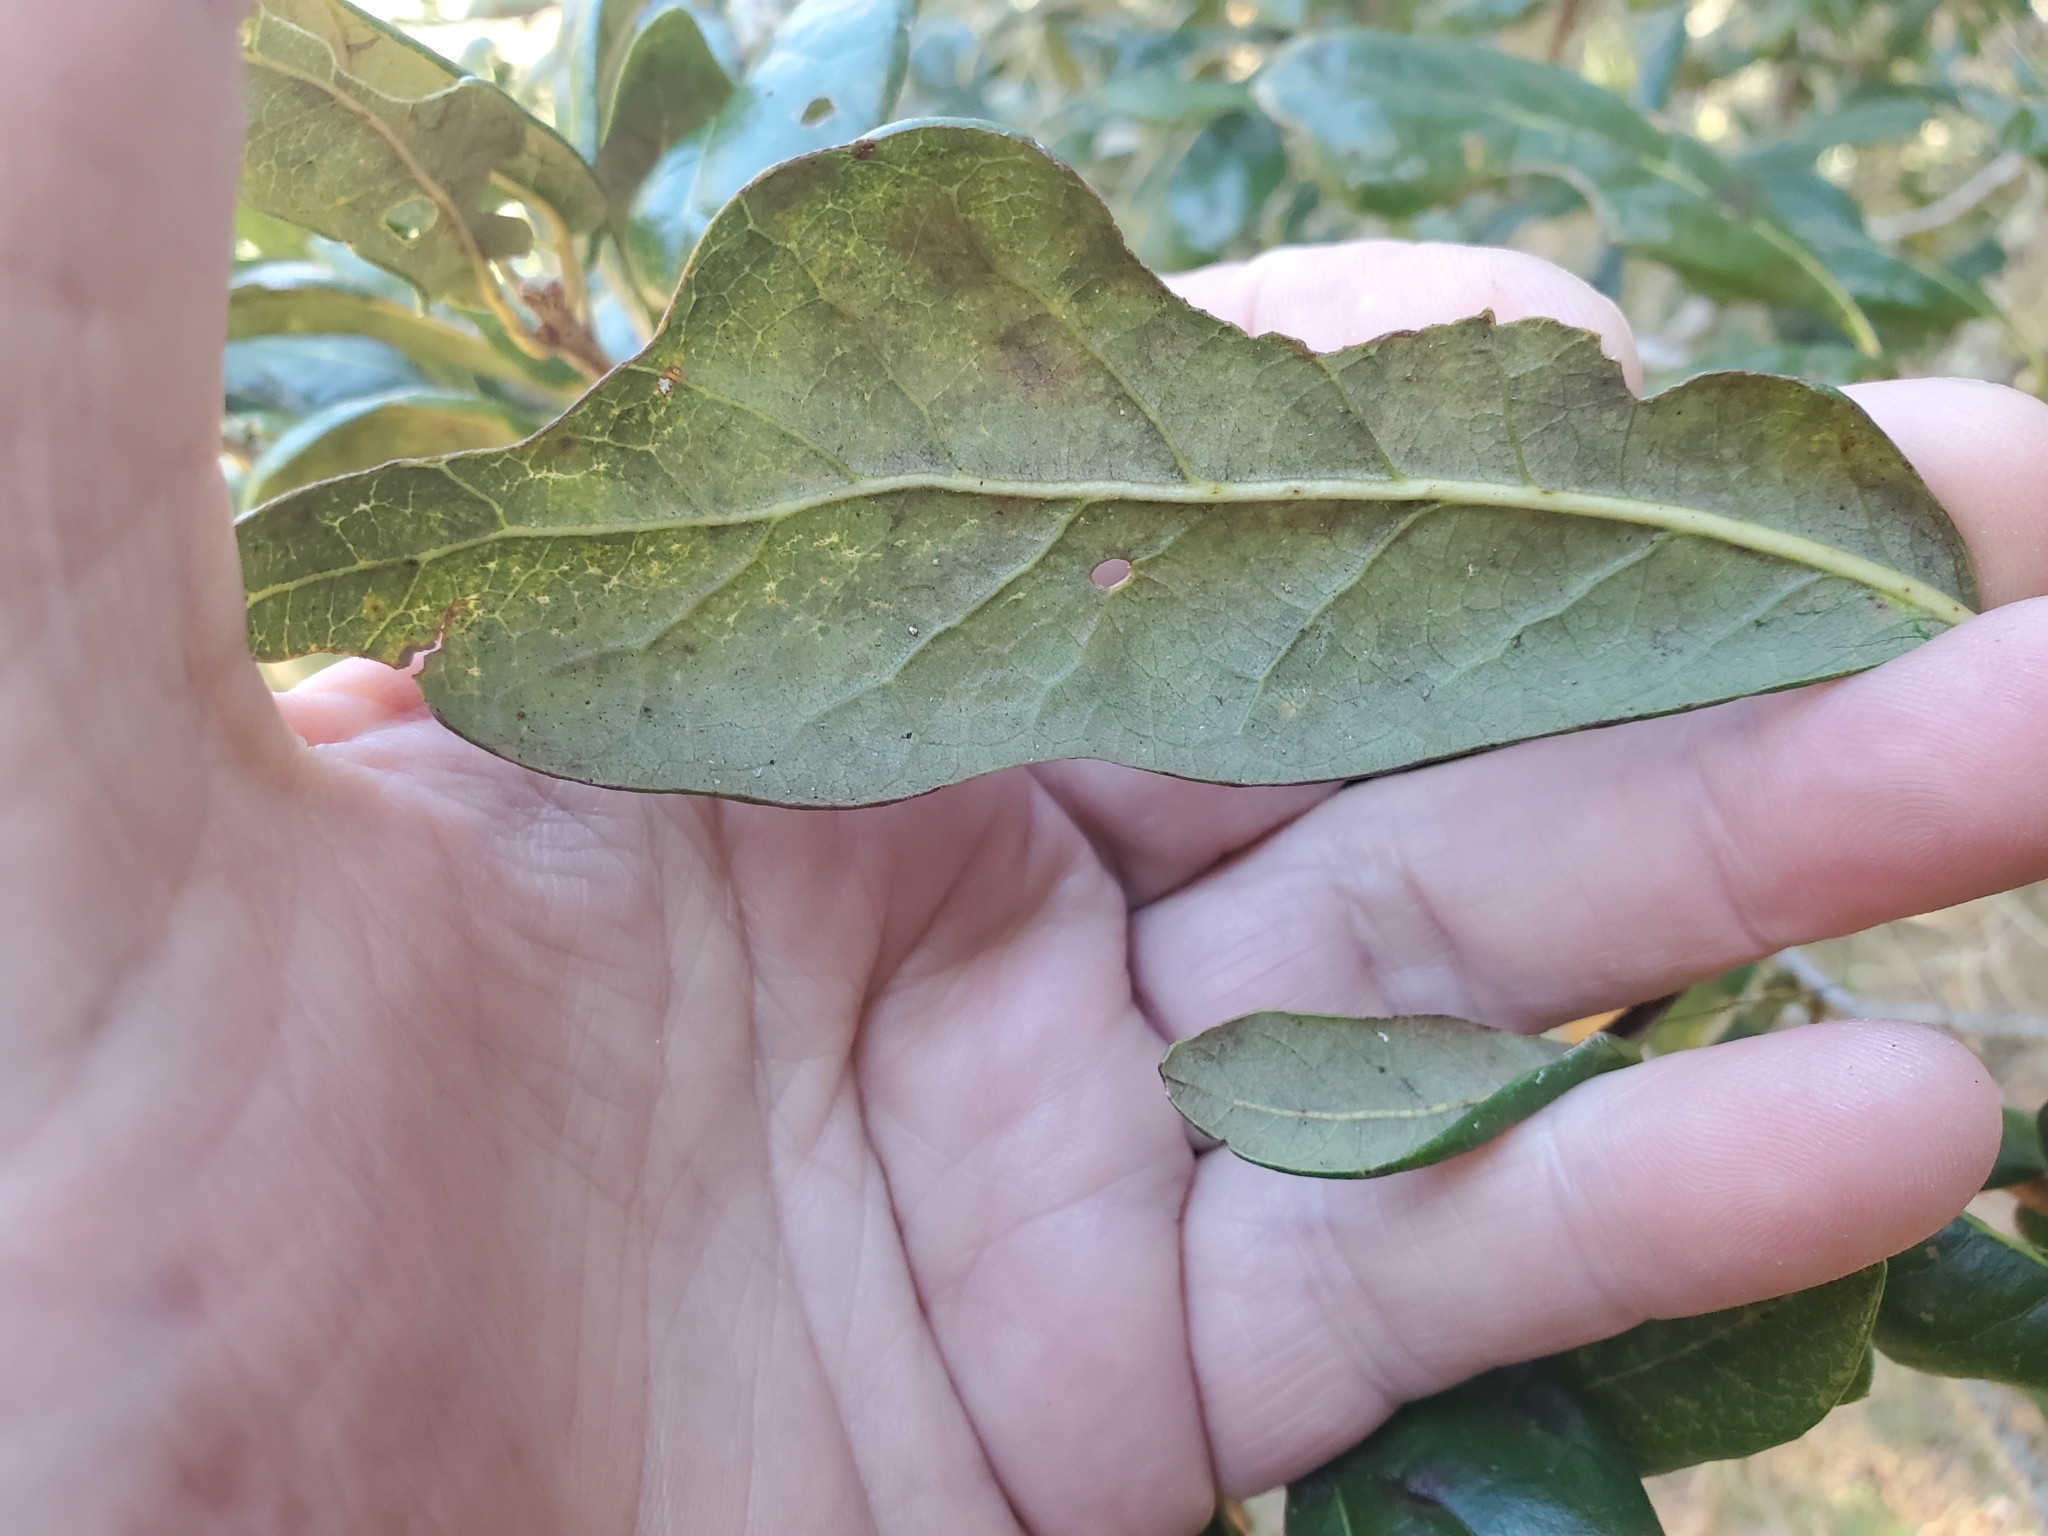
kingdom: Plantae
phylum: Tracheophyta
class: Magnoliopsida
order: Fagales
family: Fagaceae
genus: Quercus
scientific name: Quercus virginiana
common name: Southern live oak
